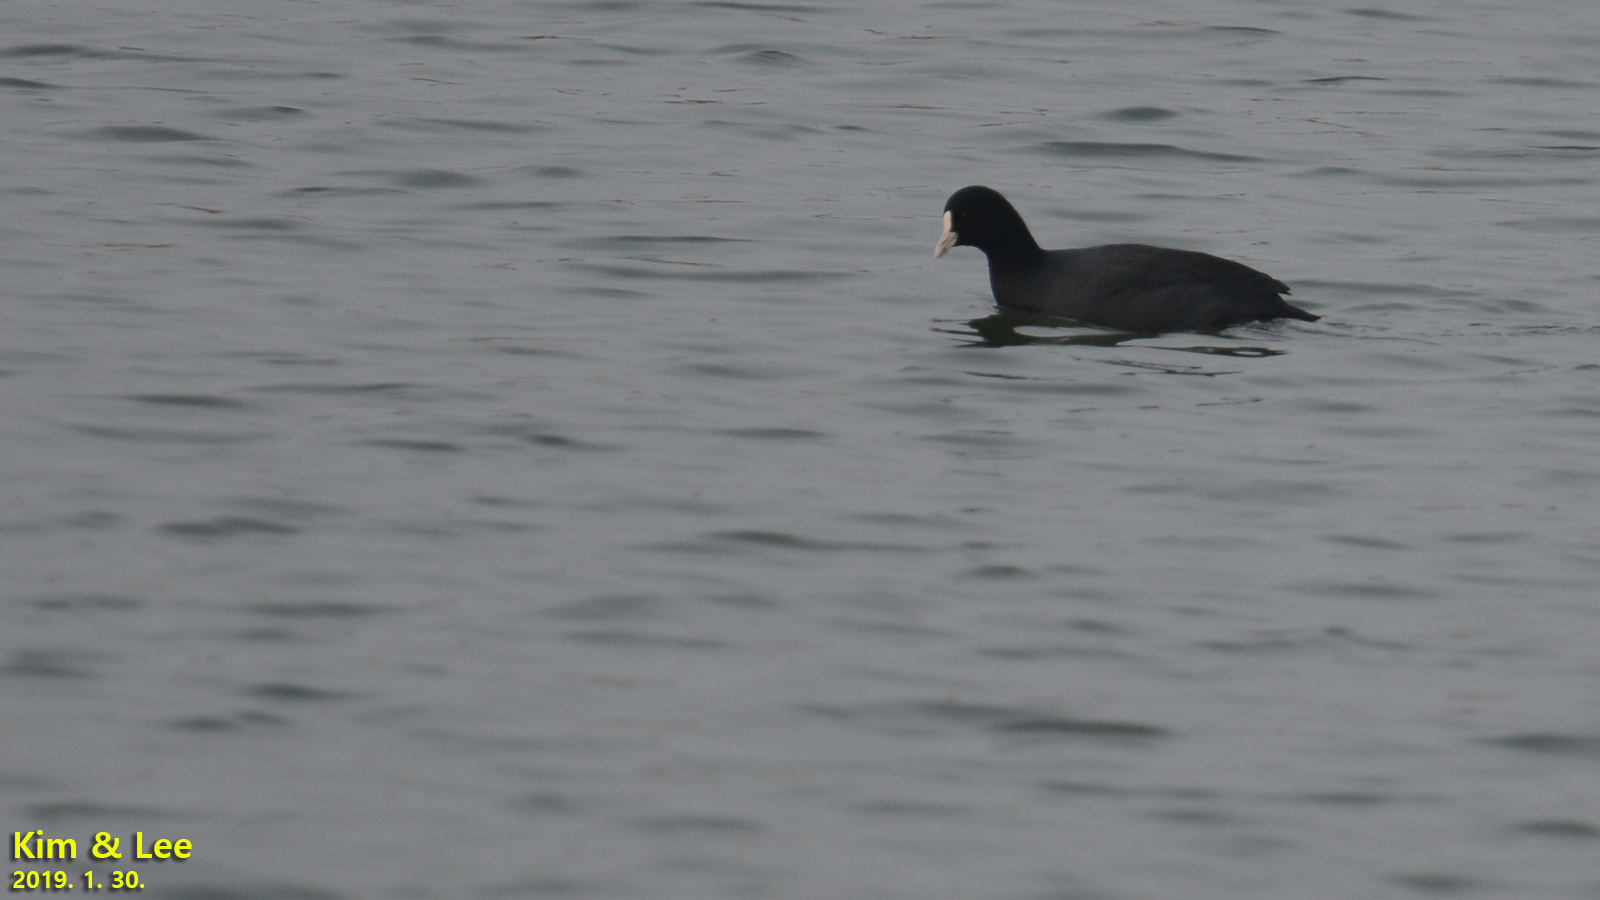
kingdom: Animalia
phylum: Chordata
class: Aves
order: Gruiformes
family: Rallidae
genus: Fulica
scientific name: Fulica atra
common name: Eurasian coot
